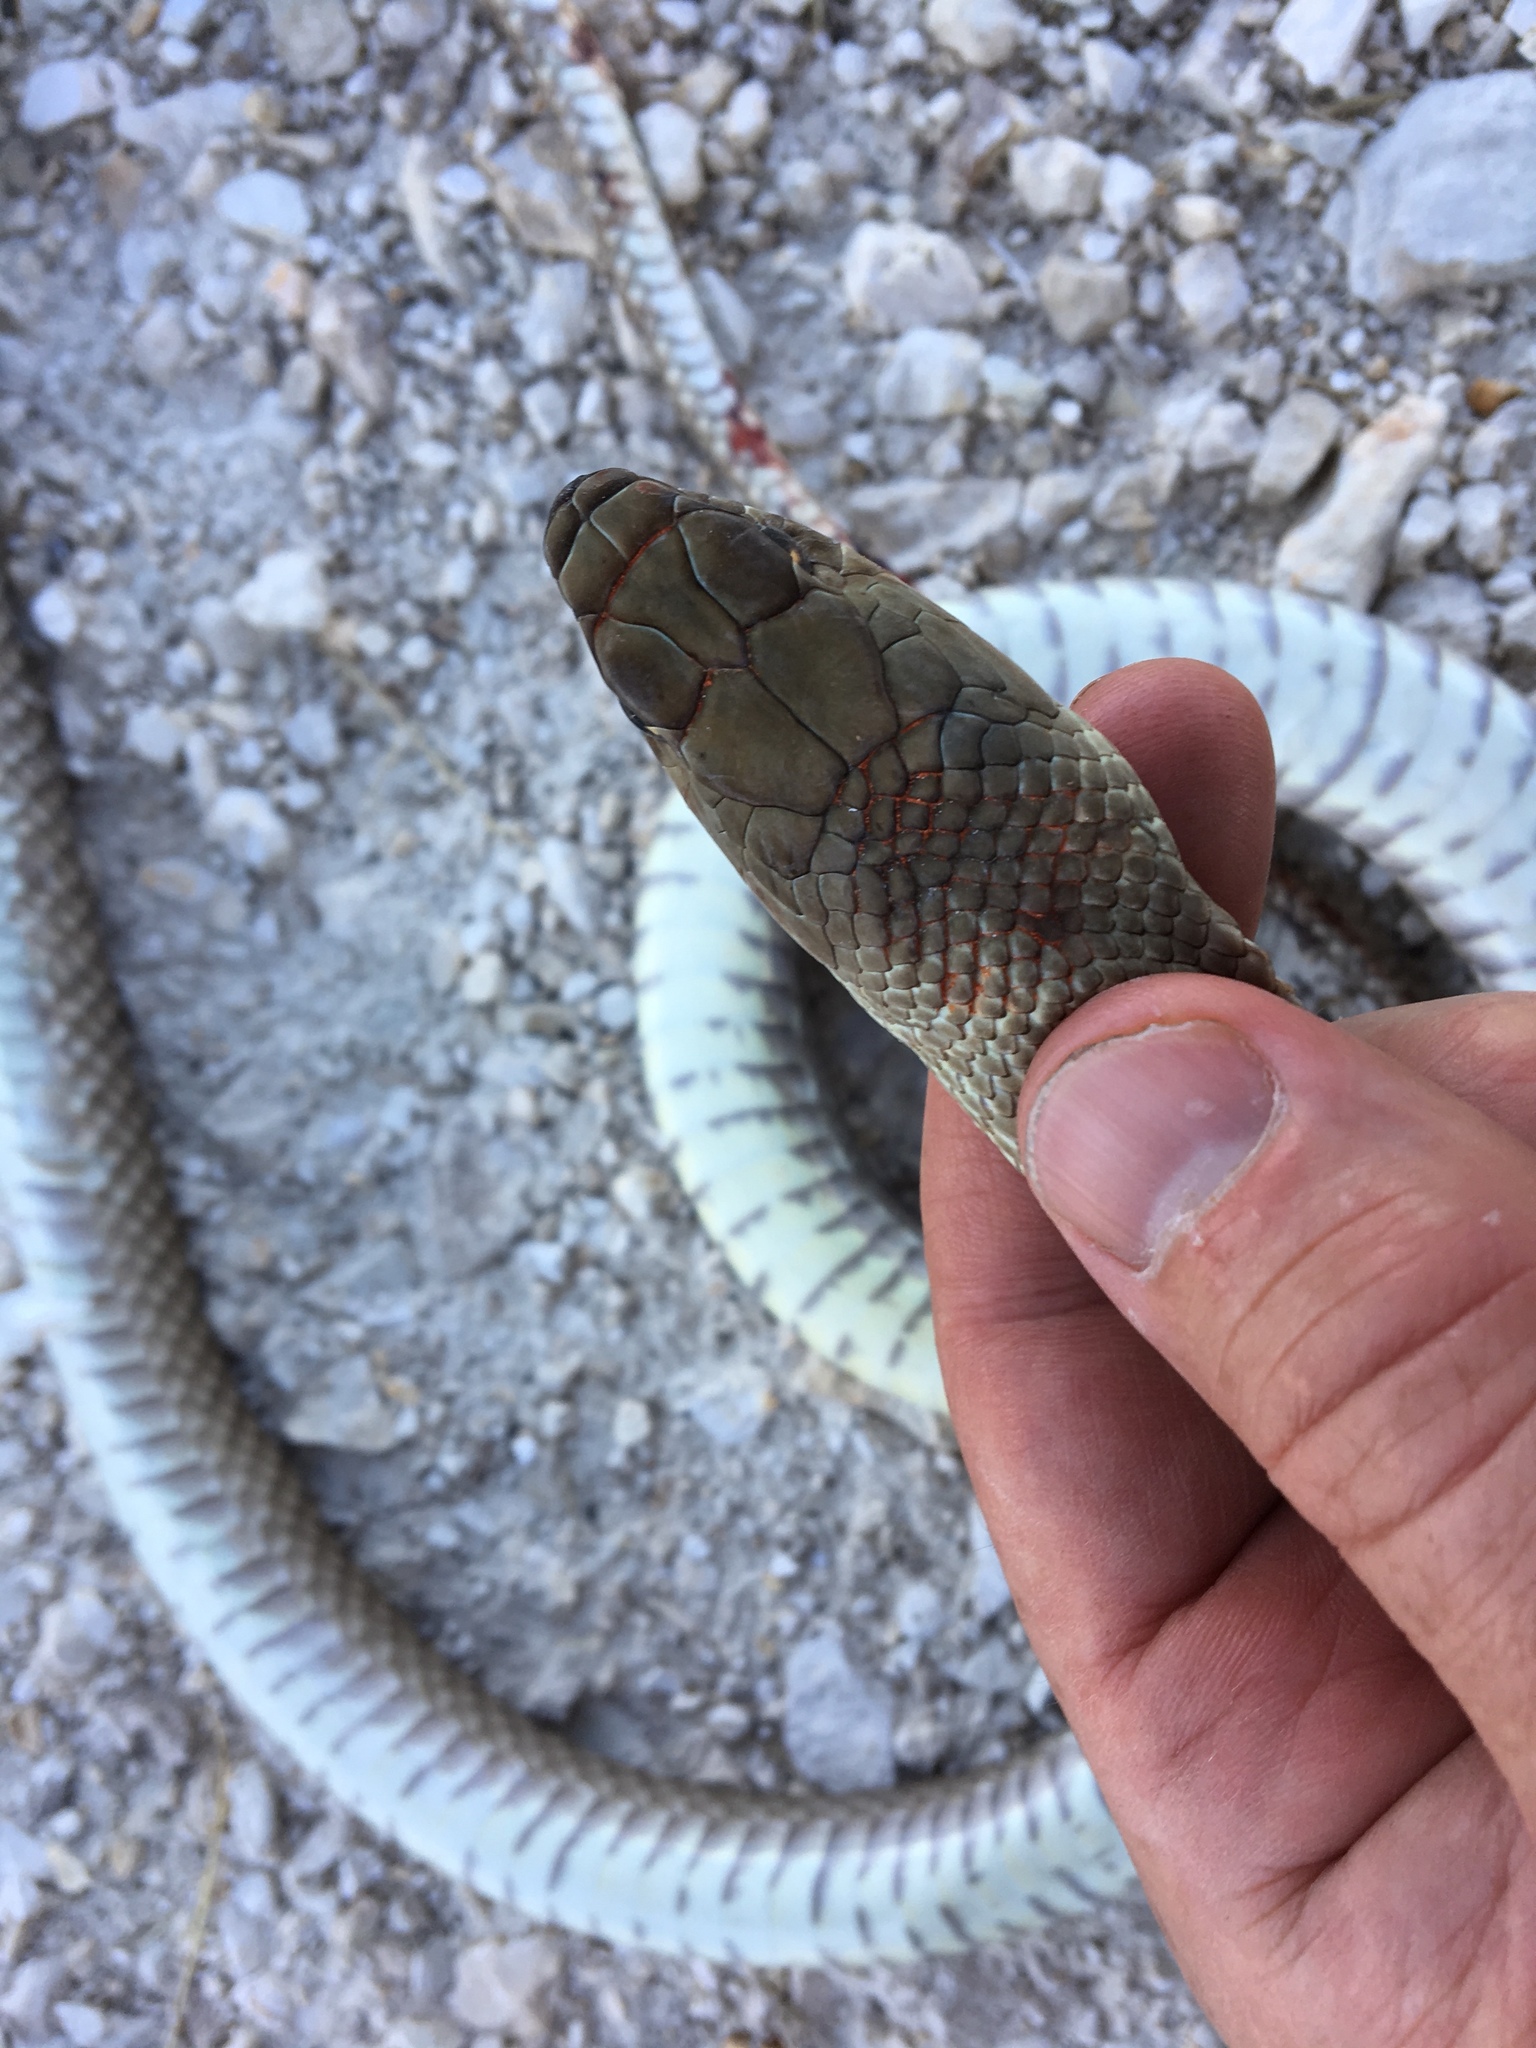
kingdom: Animalia
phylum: Chordata
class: Squamata
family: Colubridae
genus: Masticophis
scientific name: Masticophis flagellum
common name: Coachwhip
